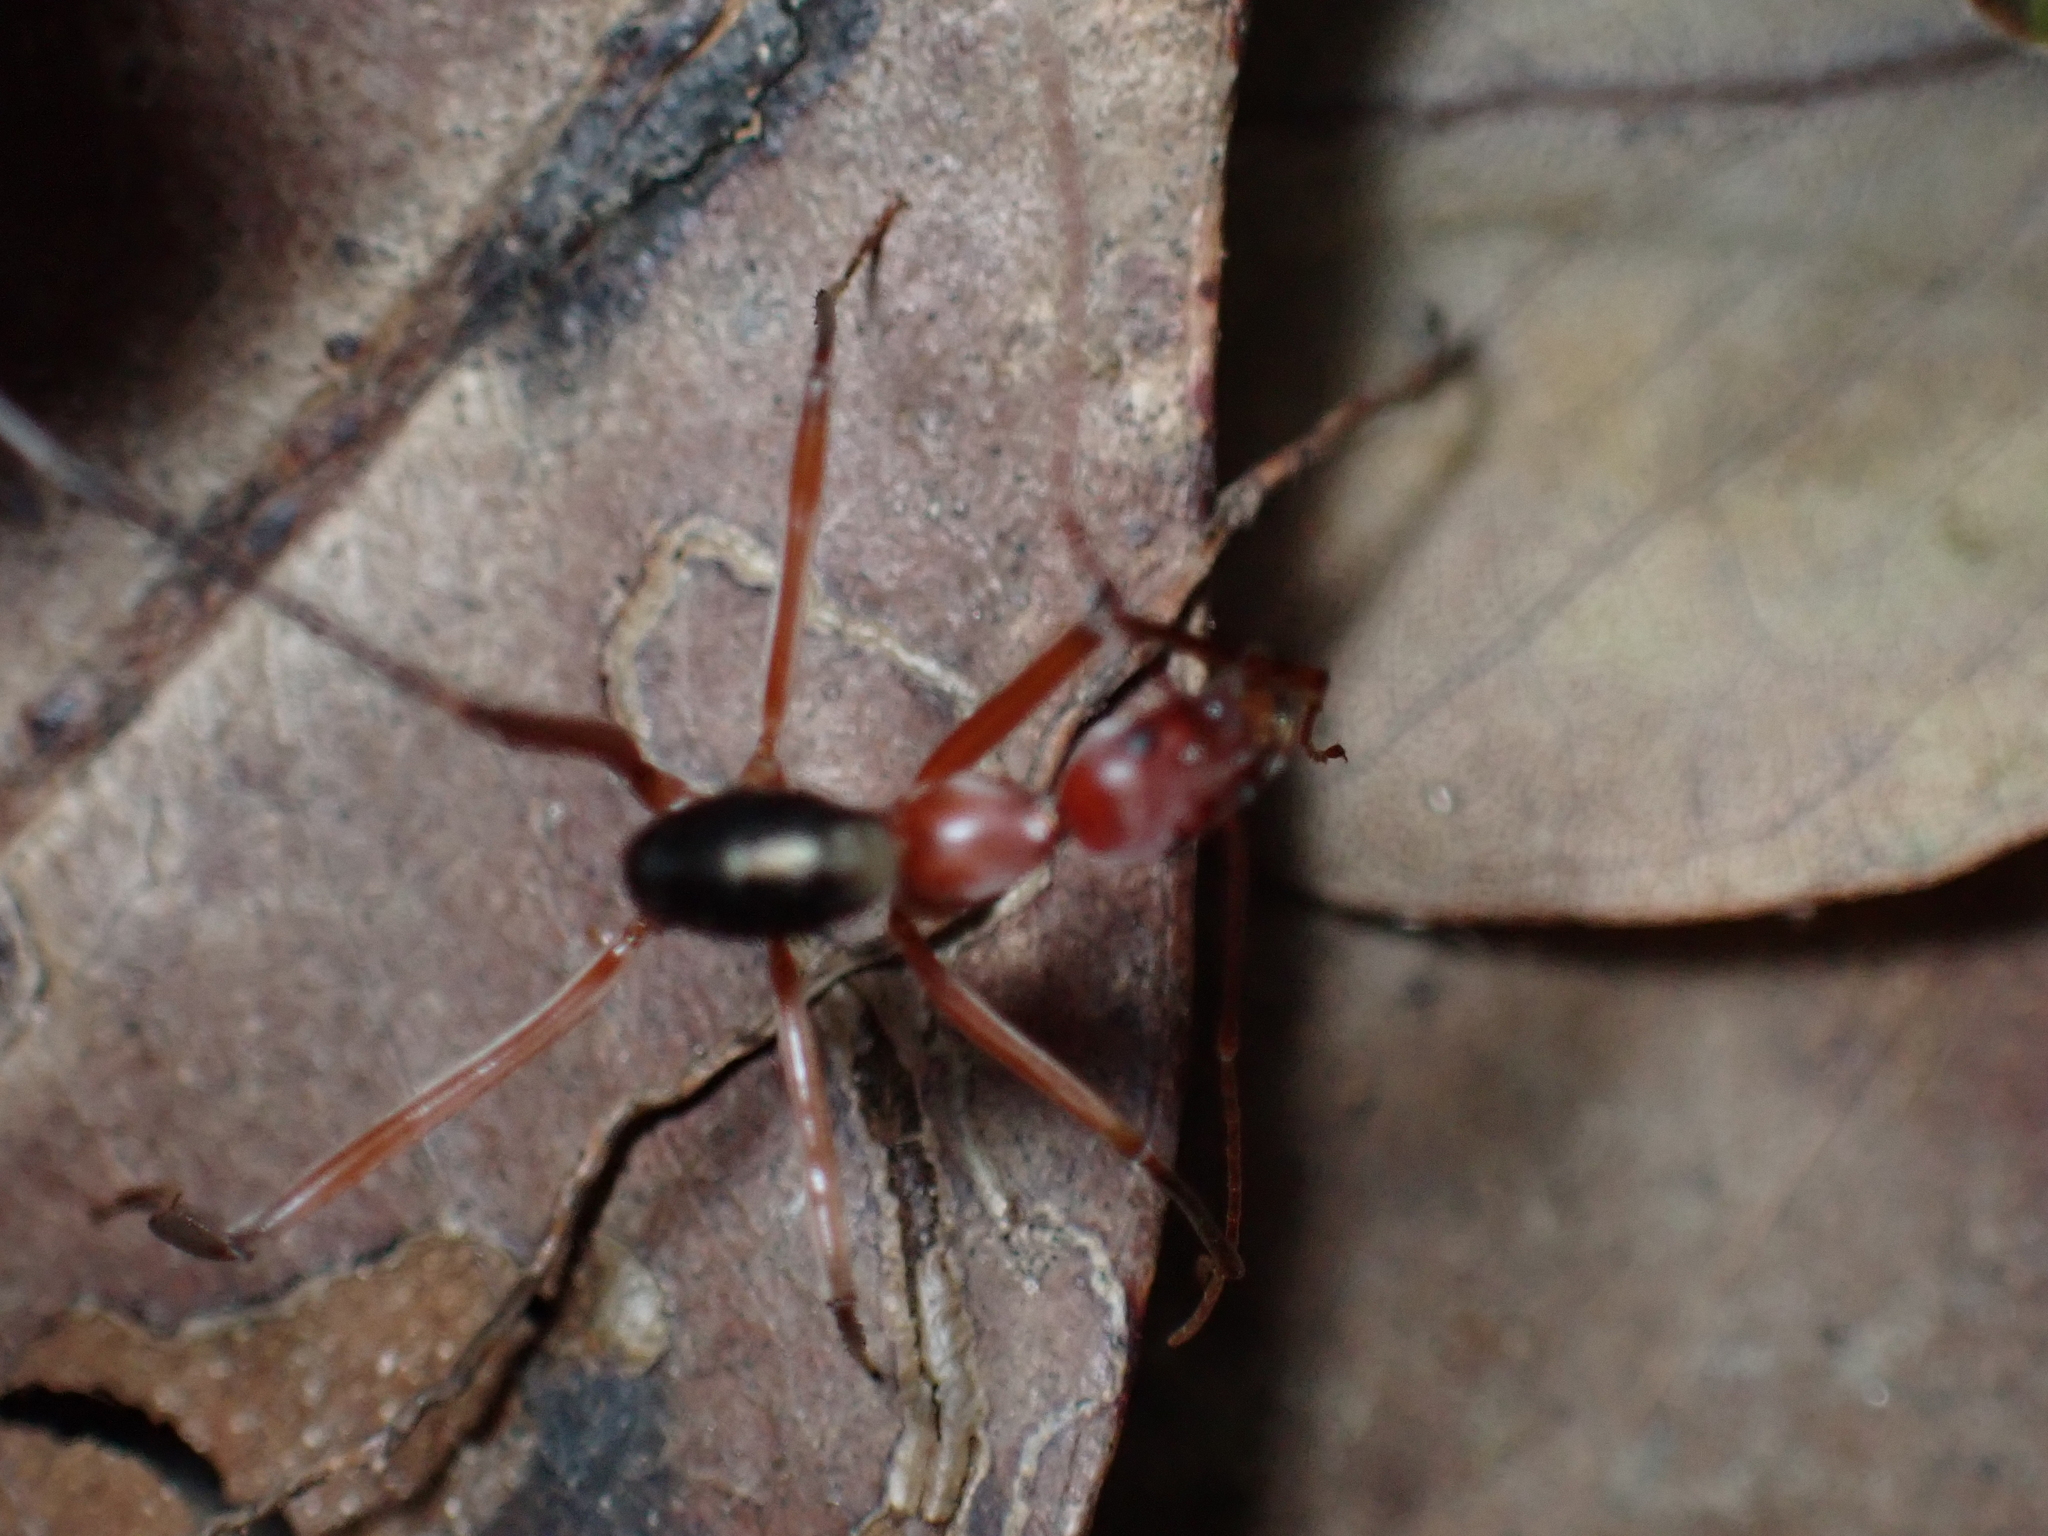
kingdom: Animalia
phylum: Arthropoda
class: Insecta
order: Hymenoptera
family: Formicidae
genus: Leptomyrmex
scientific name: Leptomyrmex tibialis
